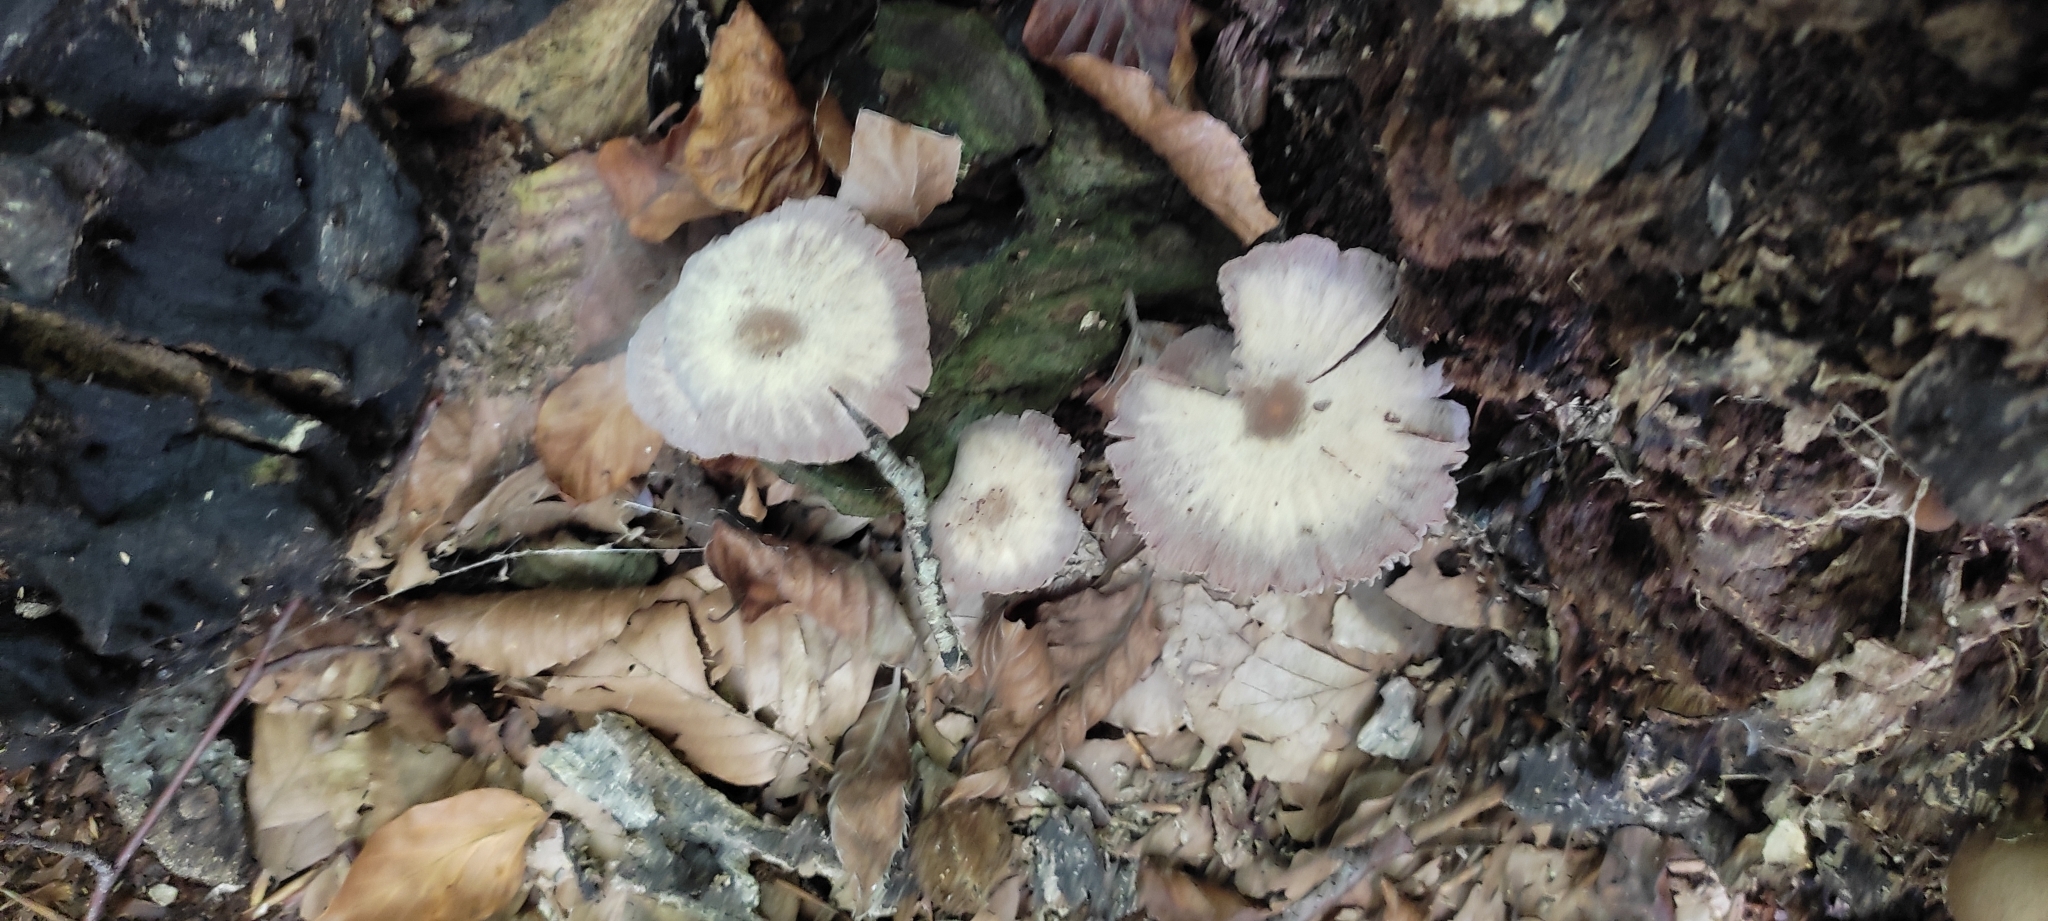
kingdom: Fungi
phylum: Basidiomycota
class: Agaricomycetes
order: Agaricales
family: Hydnangiaceae
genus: Laccaria
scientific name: Laccaria amethystina
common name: Amethyst deceiver
